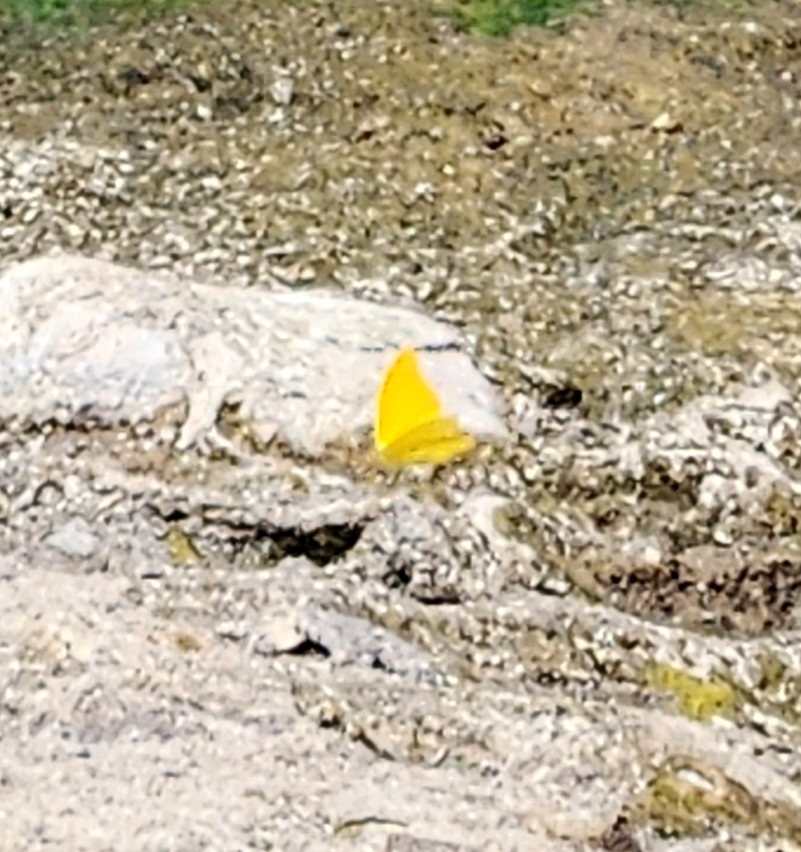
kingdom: Animalia
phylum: Arthropoda
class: Insecta
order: Lepidoptera
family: Pieridae
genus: Phoebis
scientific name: Phoebis agarithe
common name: Large orange sulphur
